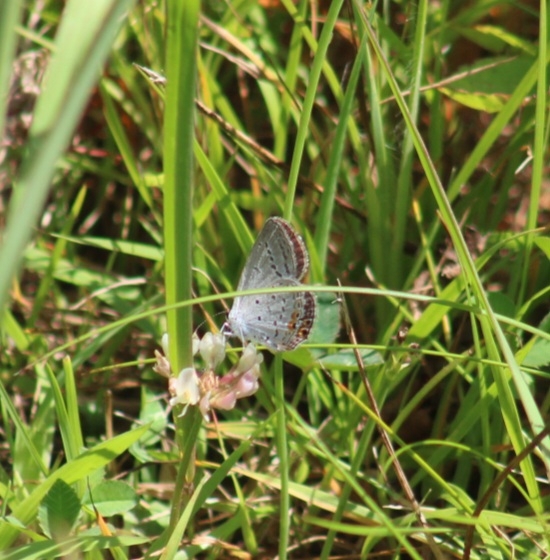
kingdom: Animalia
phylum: Arthropoda
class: Insecta
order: Lepidoptera
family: Lycaenidae
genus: Elkalyce
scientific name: Elkalyce comyntas
